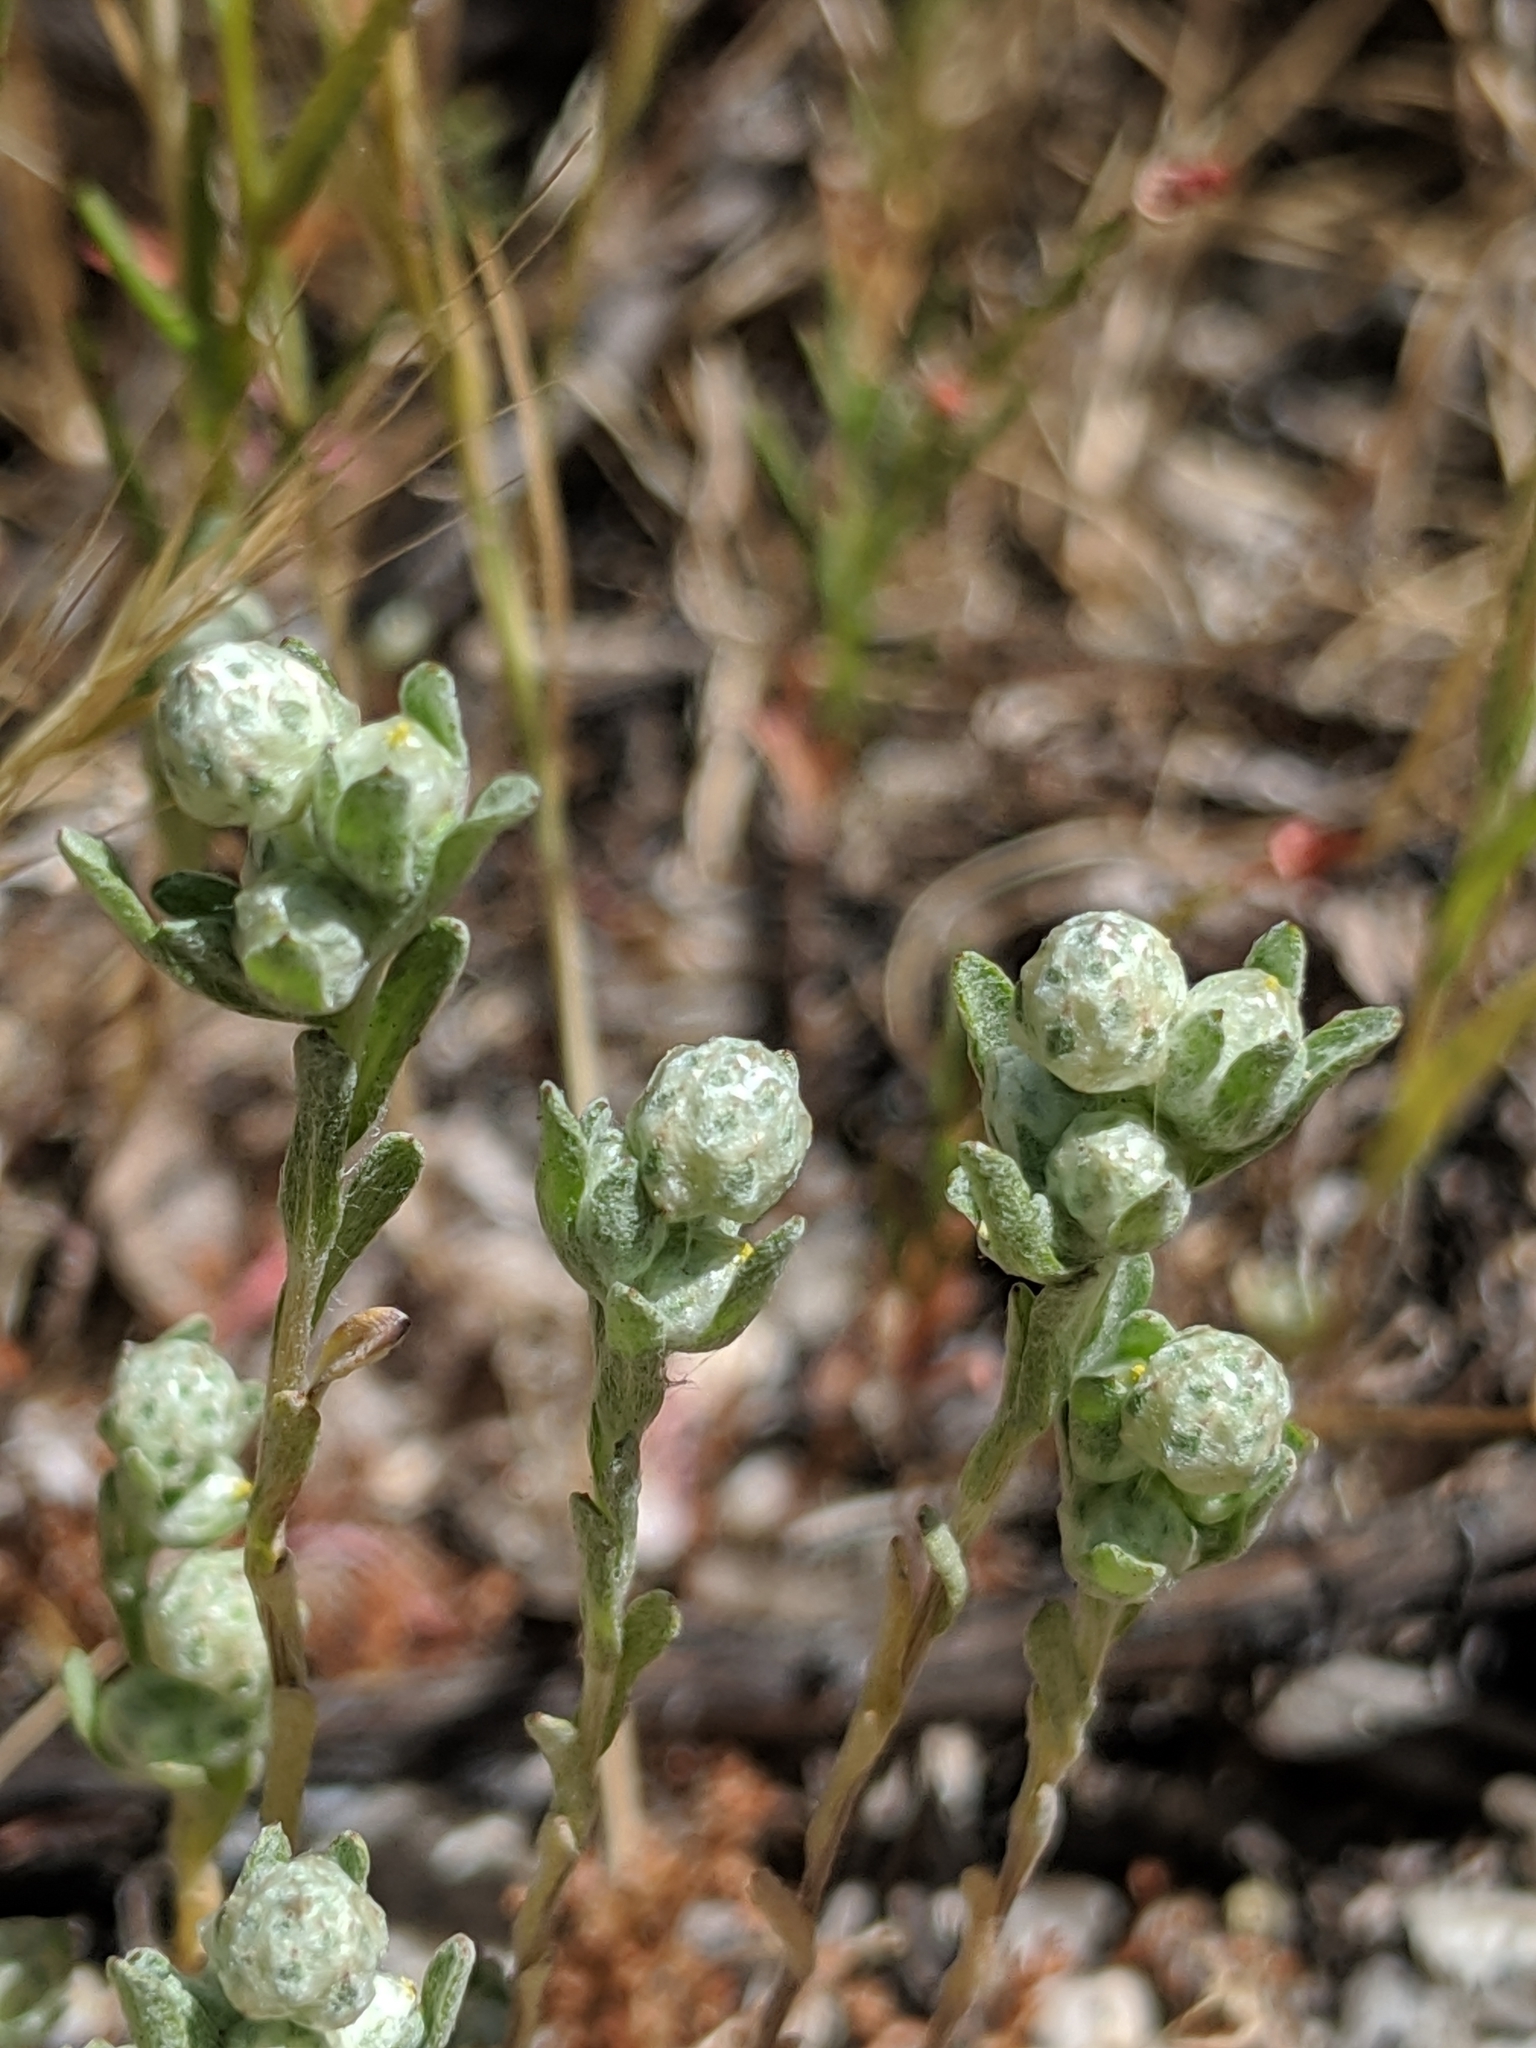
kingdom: Plantae
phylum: Tracheophyta
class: Magnoliopsida
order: Asterales
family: Asteraceae
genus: Stylocline
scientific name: Stylocline gnaphaloides
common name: Everlasting nest-straw
